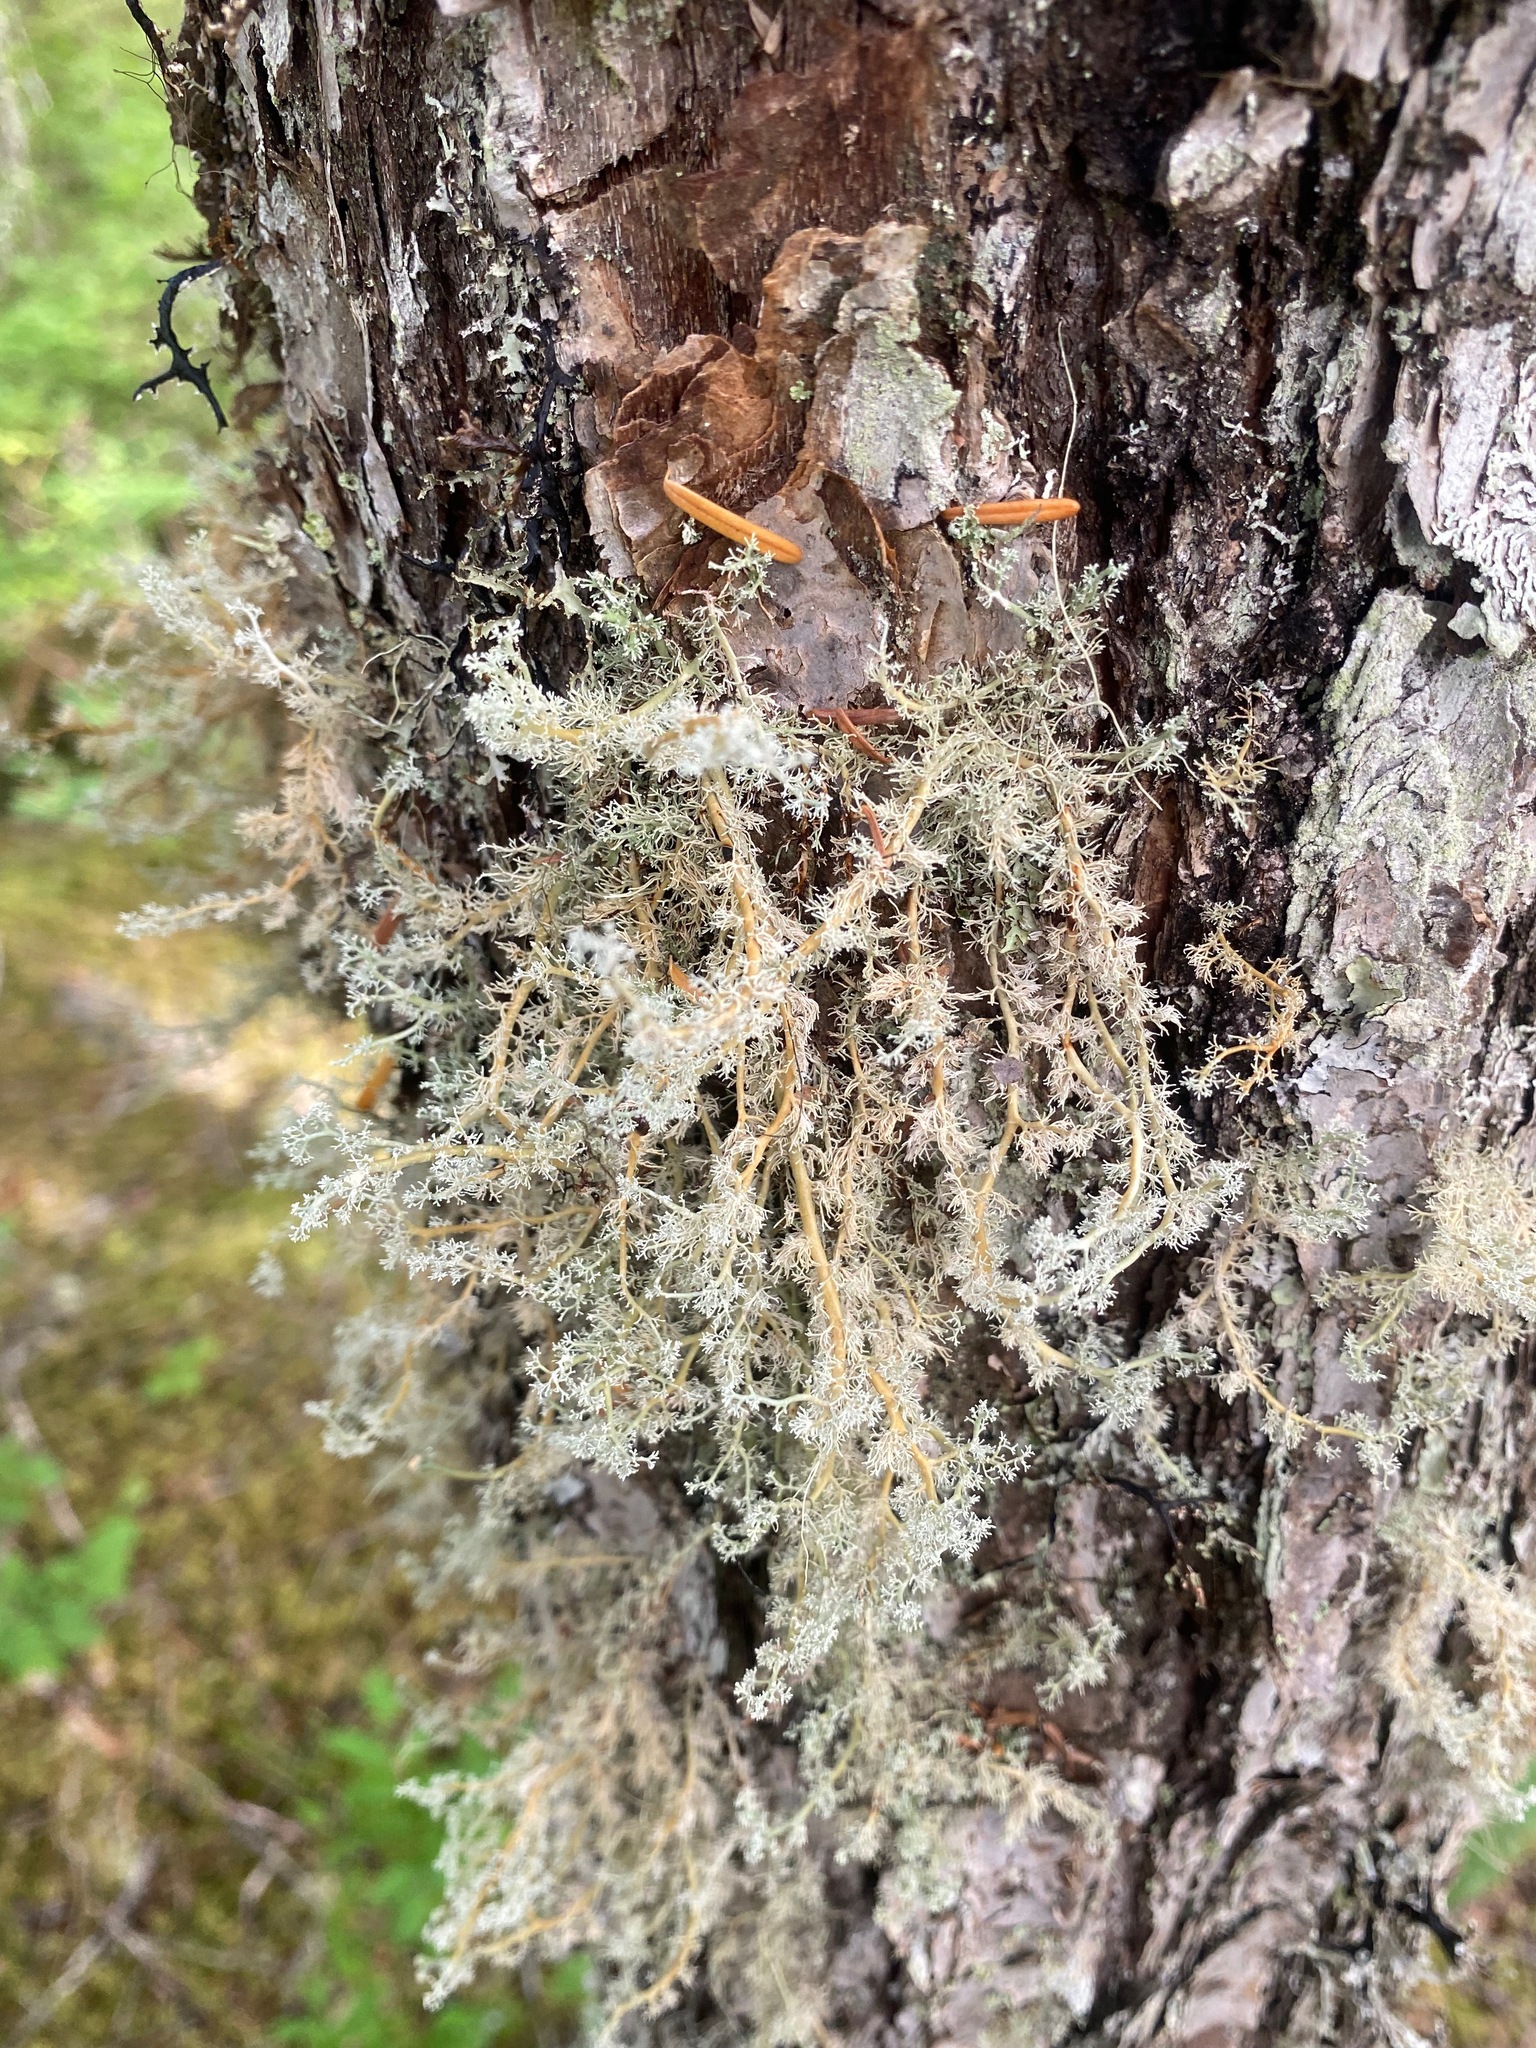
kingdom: Fungi
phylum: Ascomycota
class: Lecanoromycetes
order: Lecanorales
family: Sphaerophoraceae
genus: Sphaerophorus
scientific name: Sphaerophorus globosus
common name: Globe ball lichen
